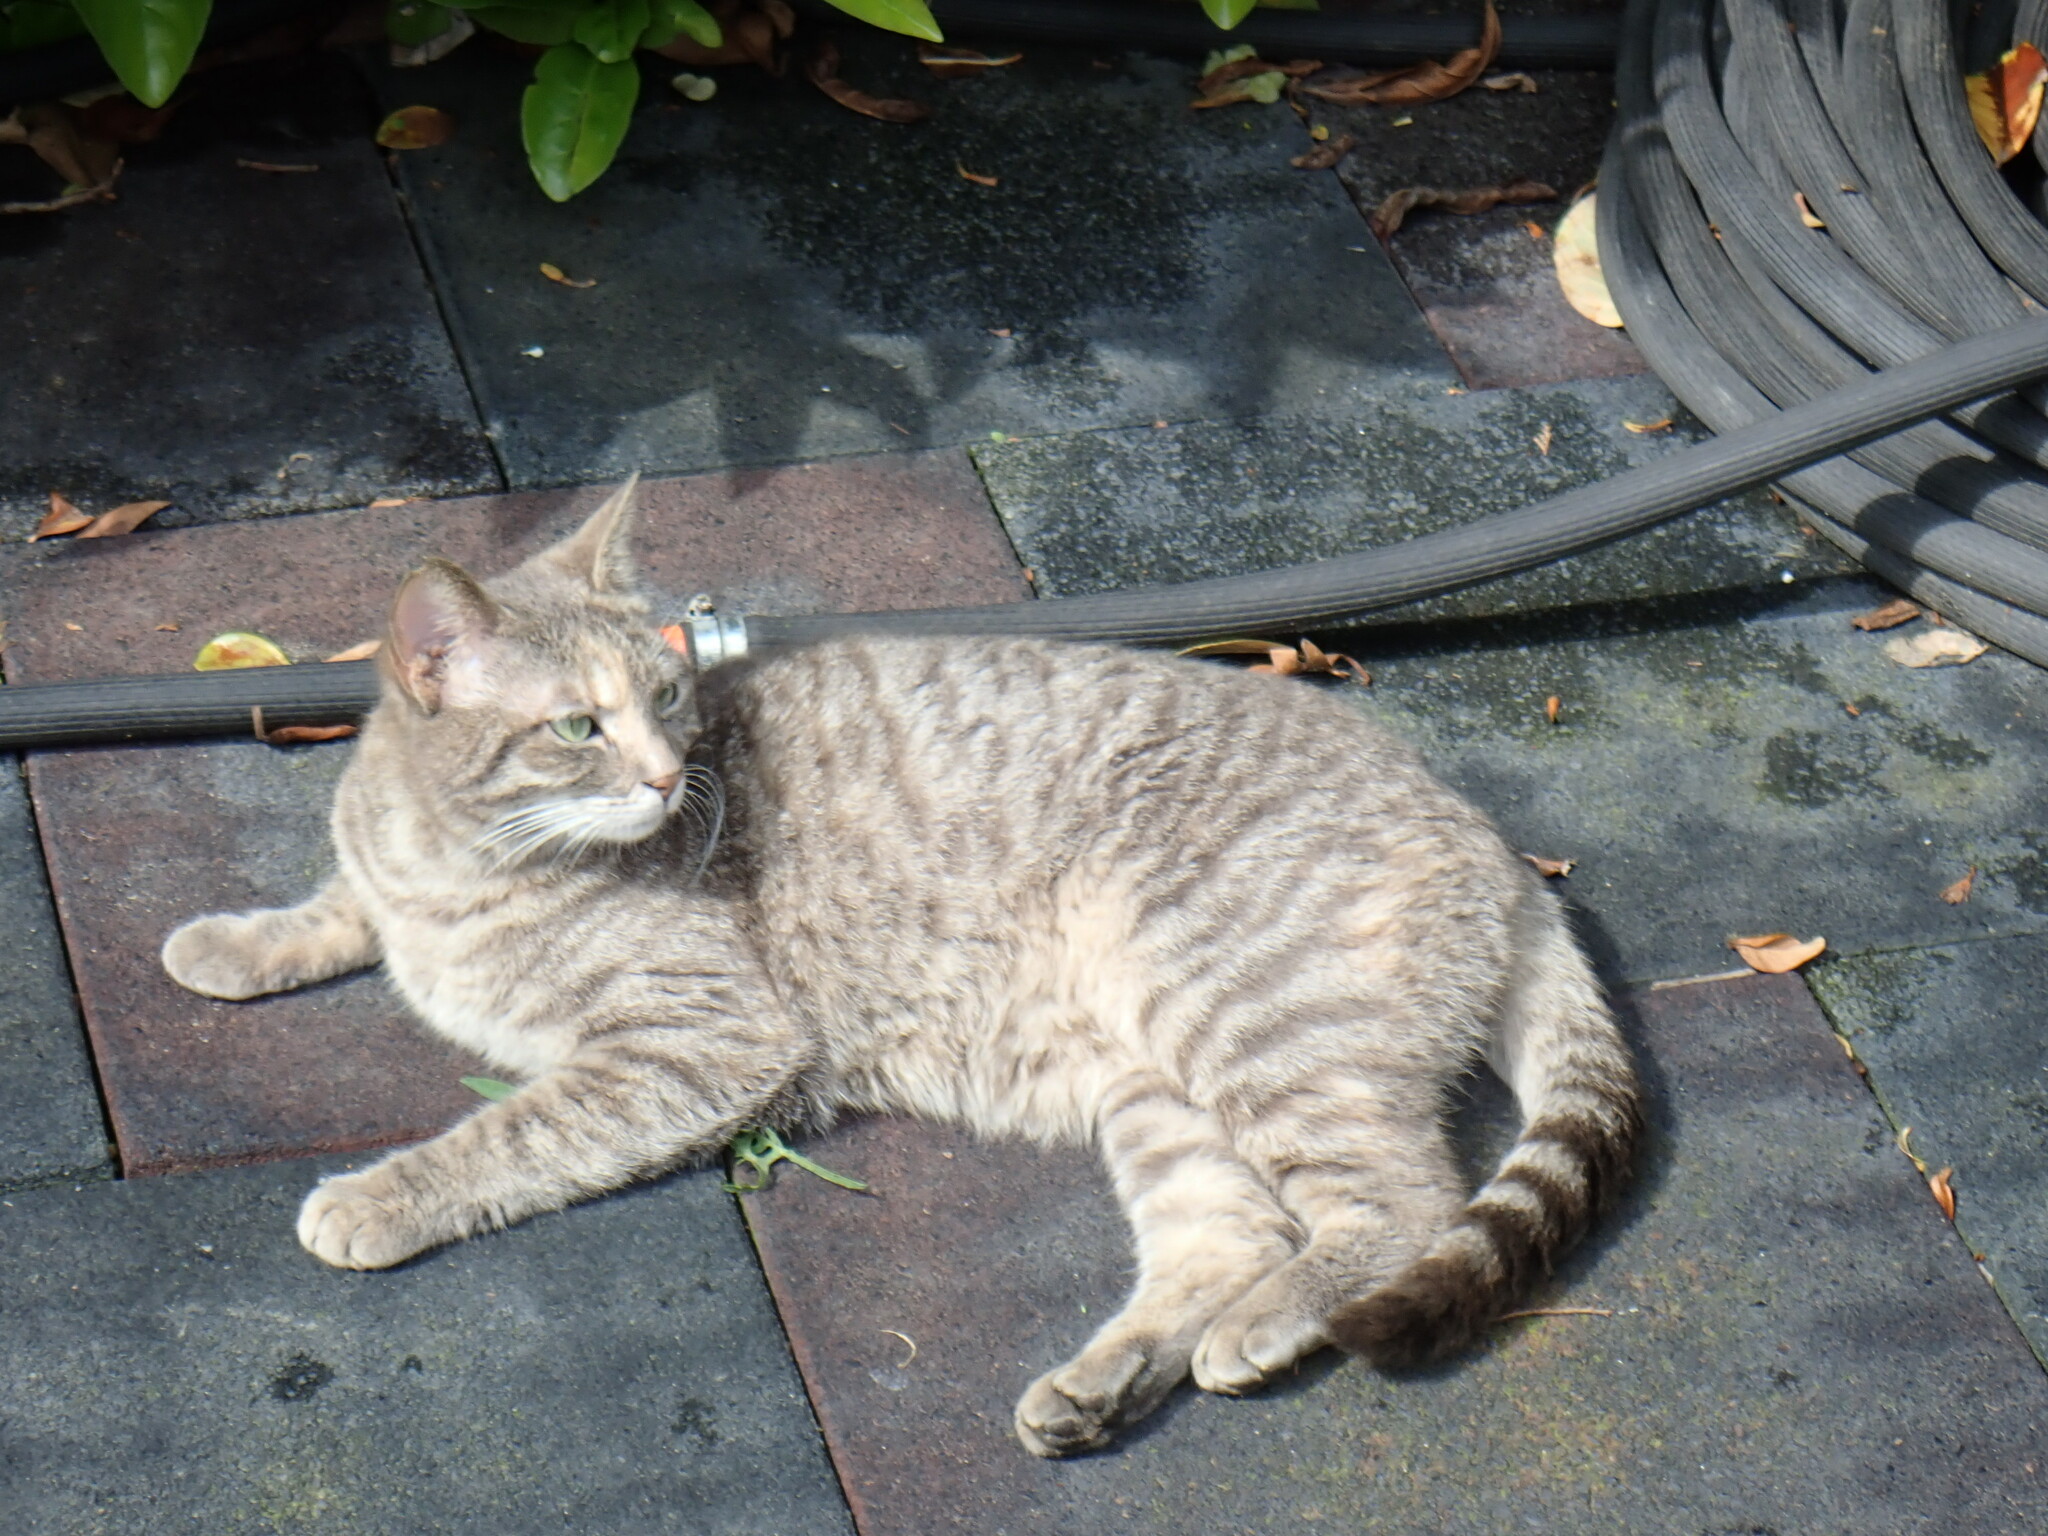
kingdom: Animalia
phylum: Chordata
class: Mammalia
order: Carnivora
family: Felidae
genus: Felis
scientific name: Felis catus
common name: Domestic cat
